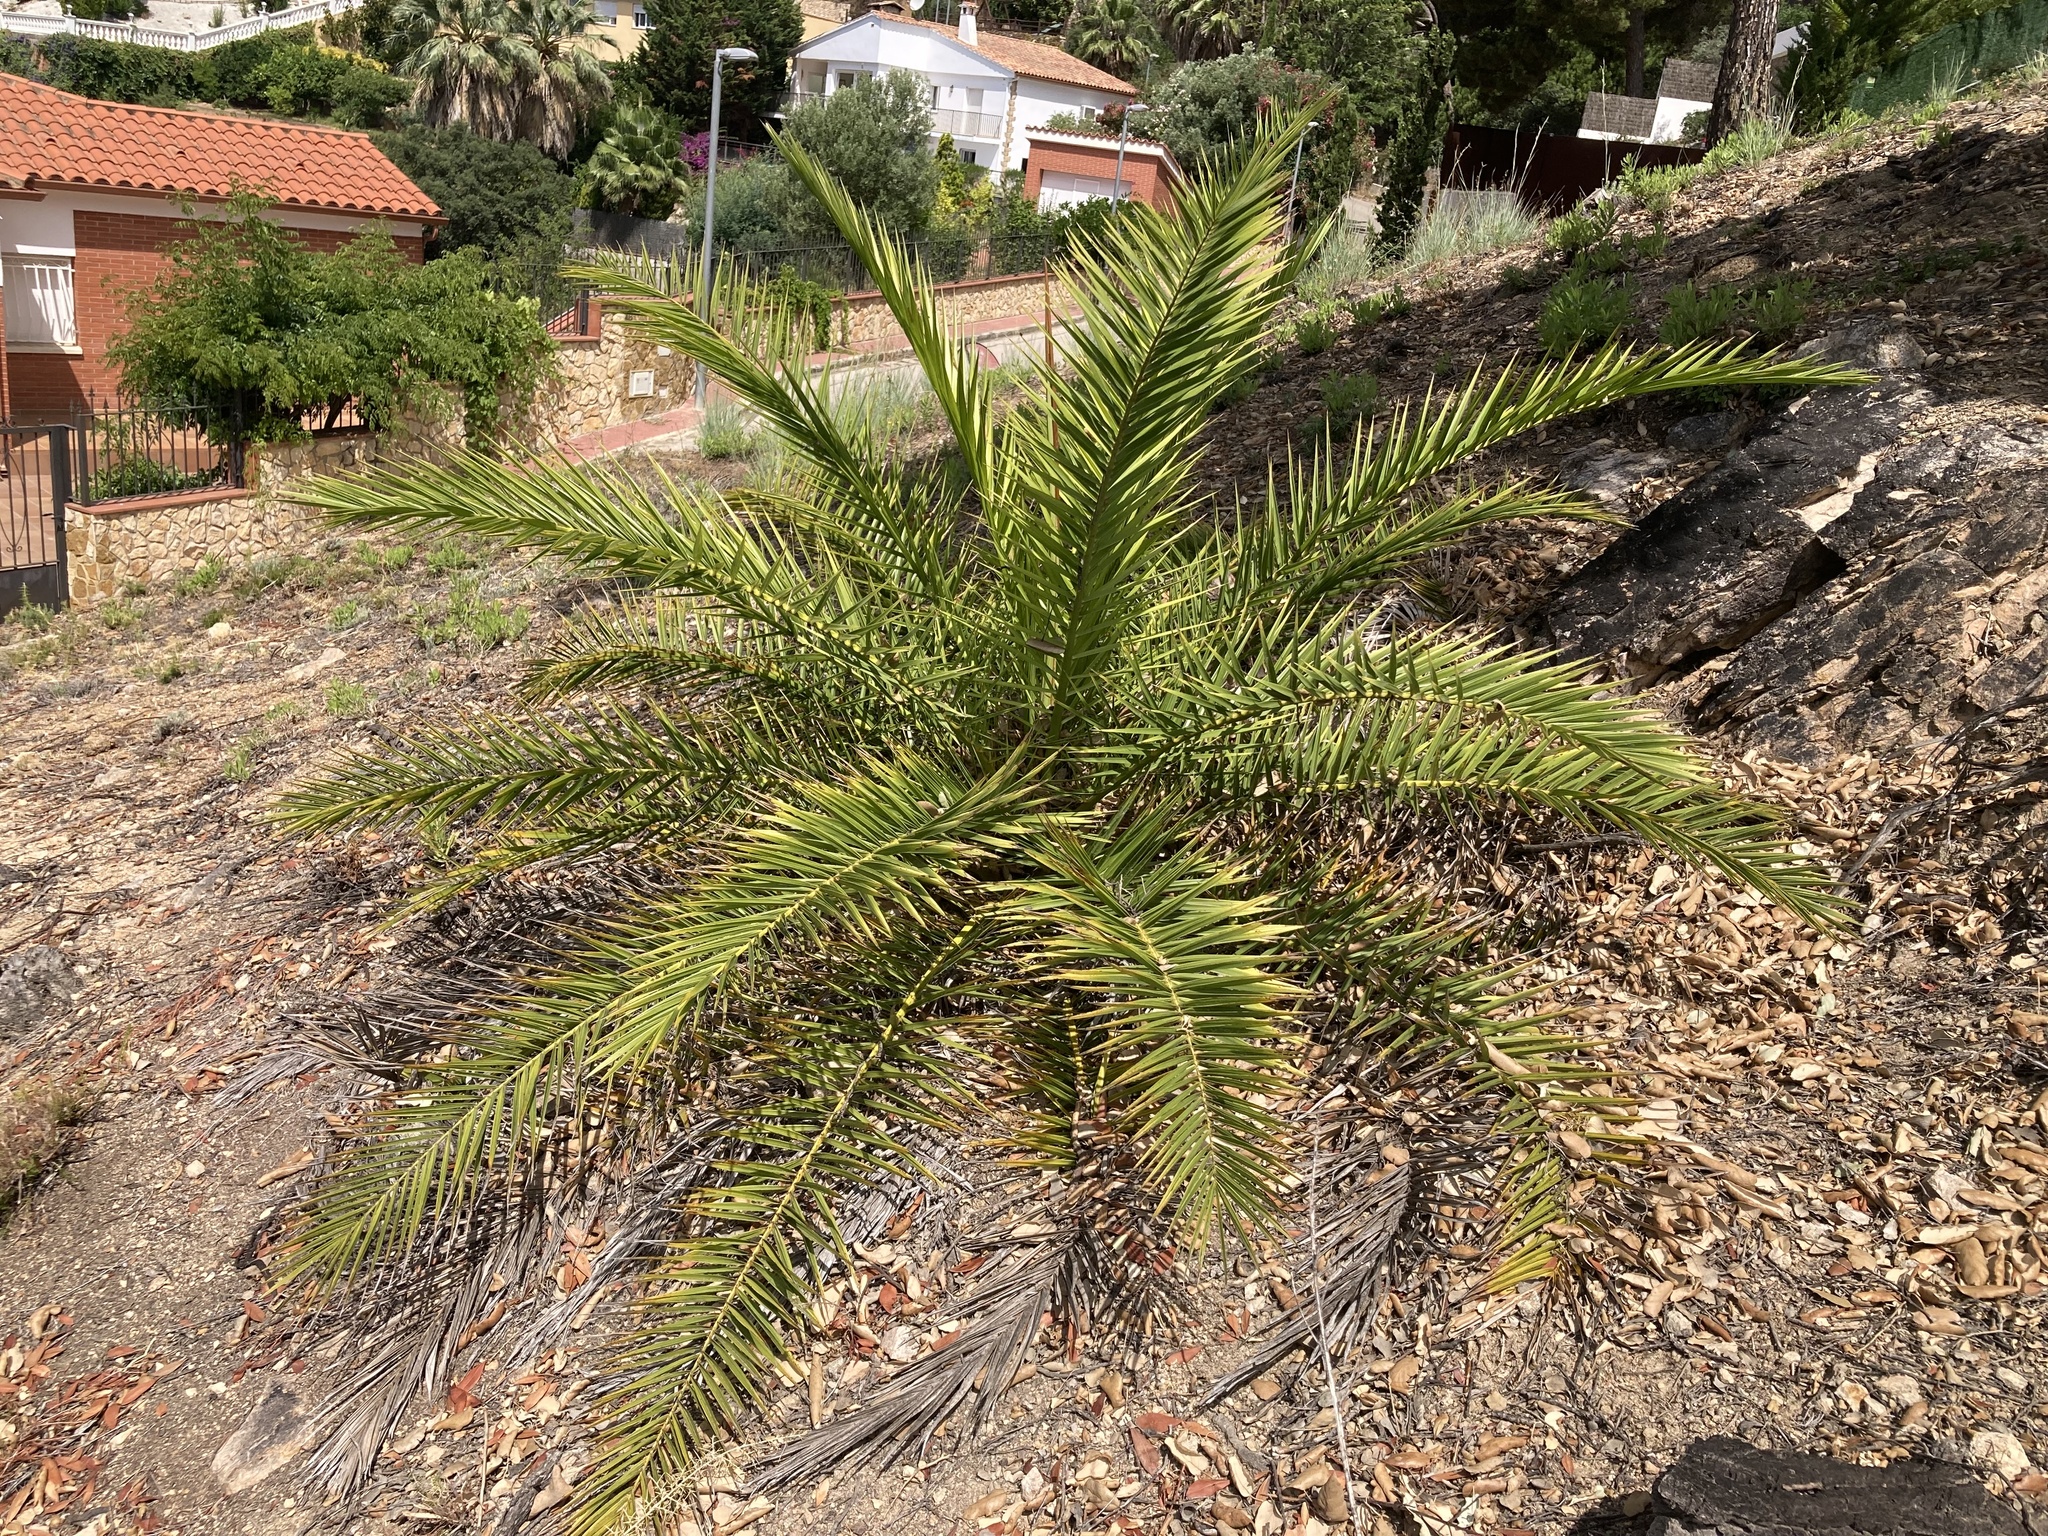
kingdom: Plantae
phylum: Tracheophyta
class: Liliopsida
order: Arecales
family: Arecaceae
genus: Phoenix
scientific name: Phoenix canariensis
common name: Canary island date palm
